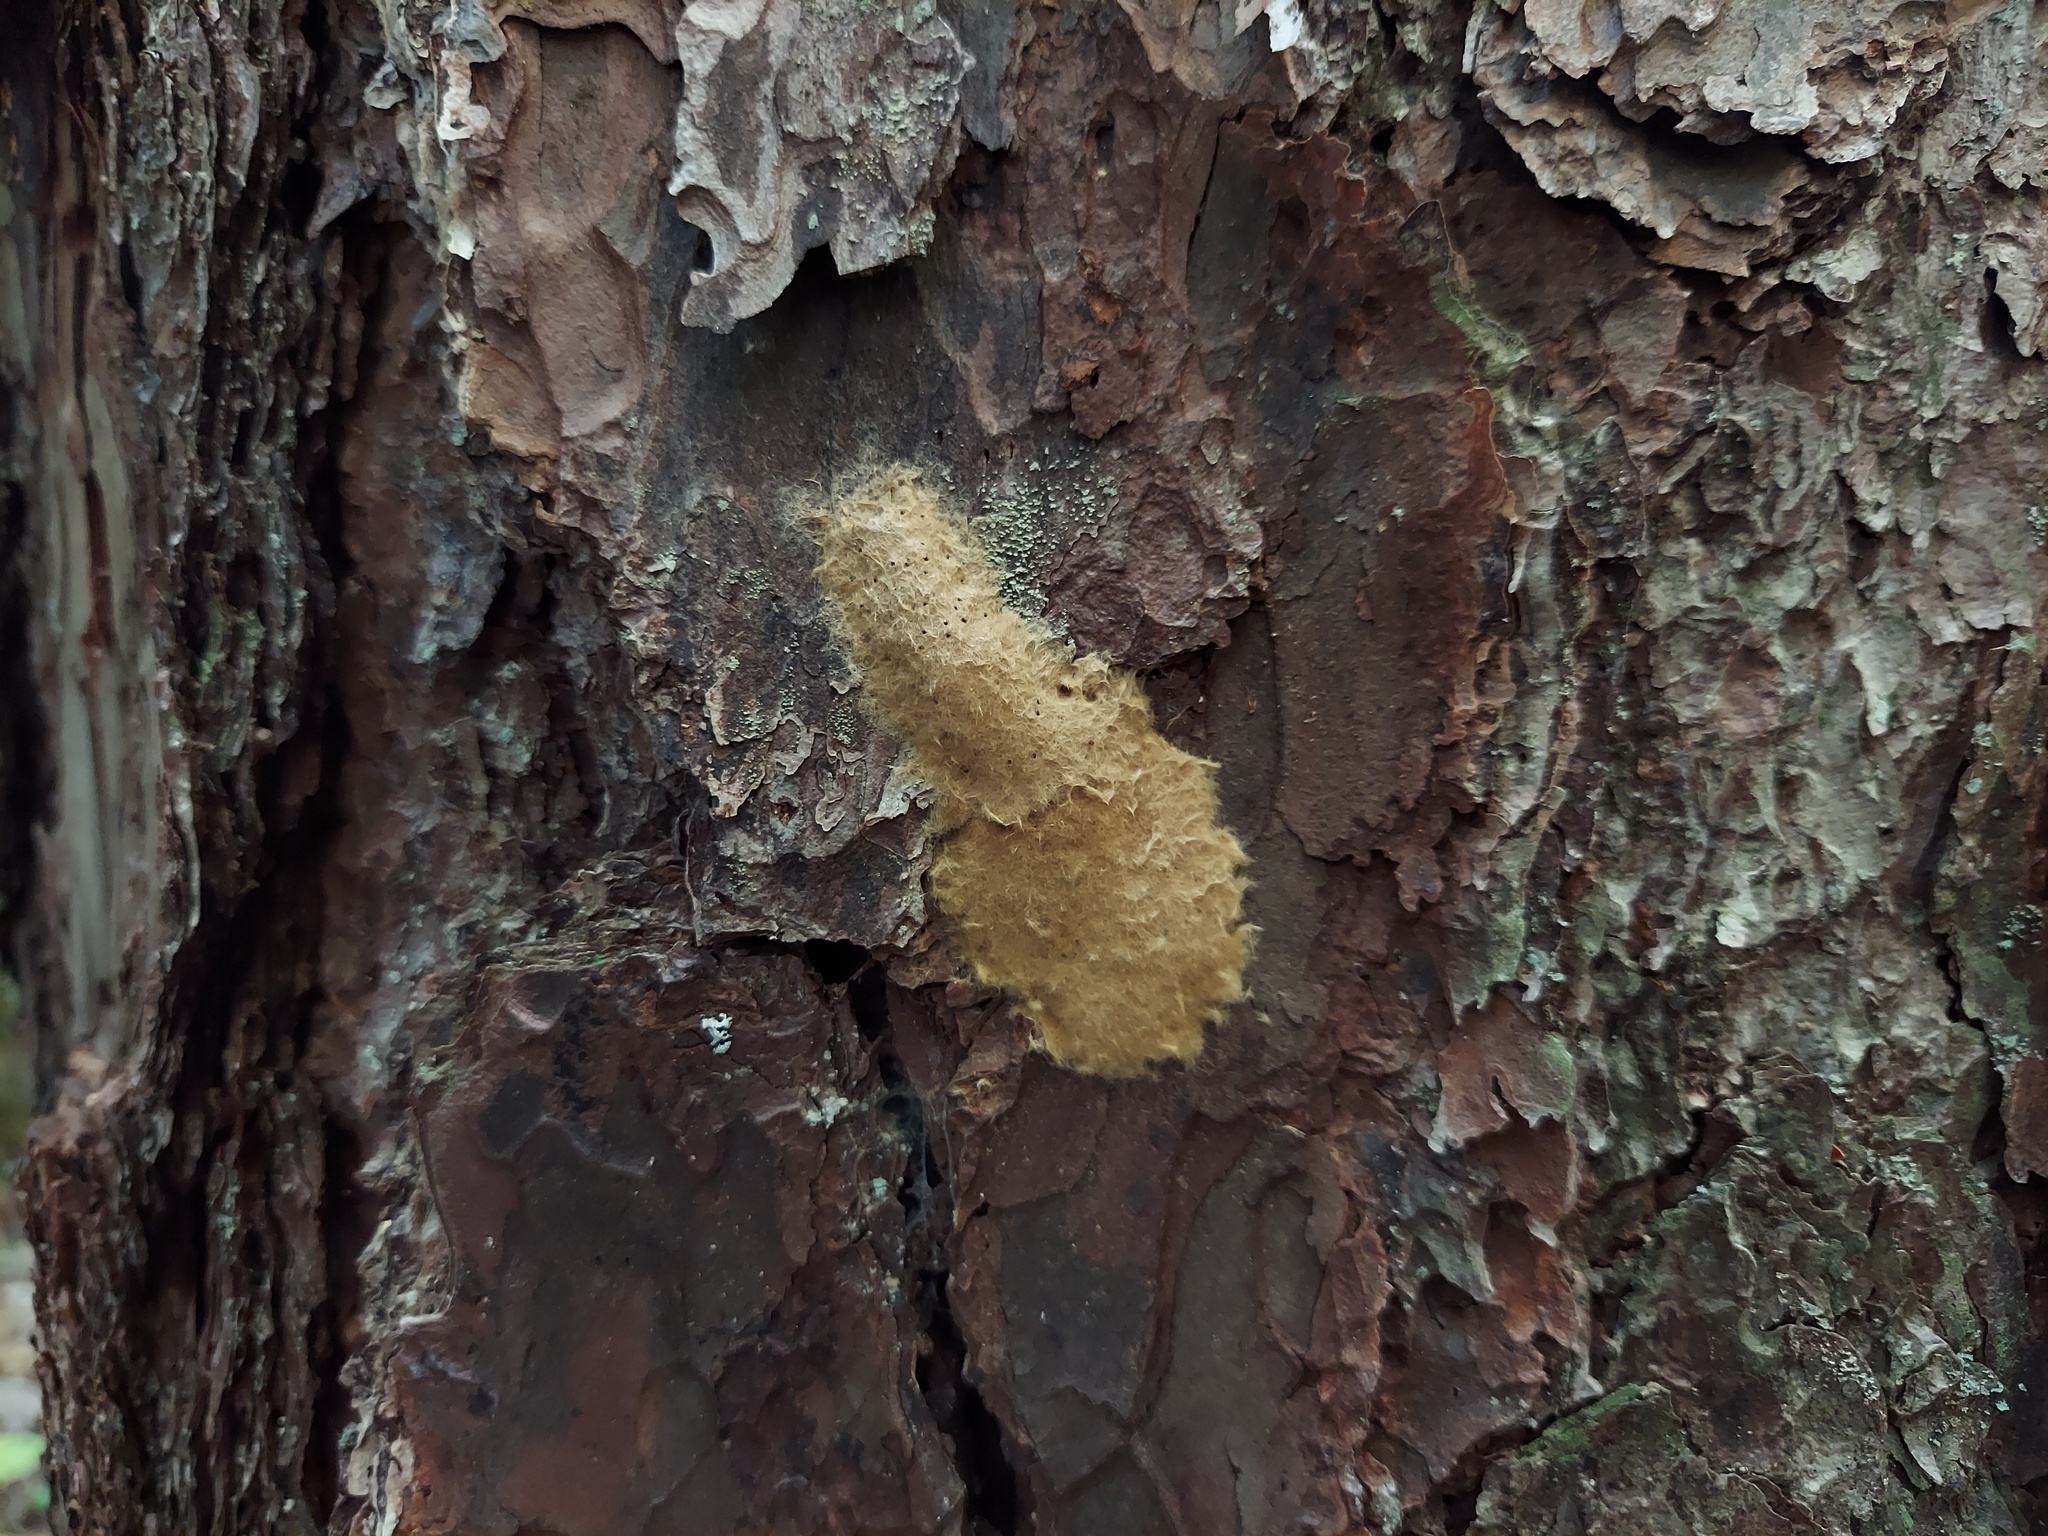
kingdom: Animalia
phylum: Arthropoda
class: Insecta
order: Lepidoptera
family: Erebidae
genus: Lymantria
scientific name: Lymantria dispar
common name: Gypsy moth
